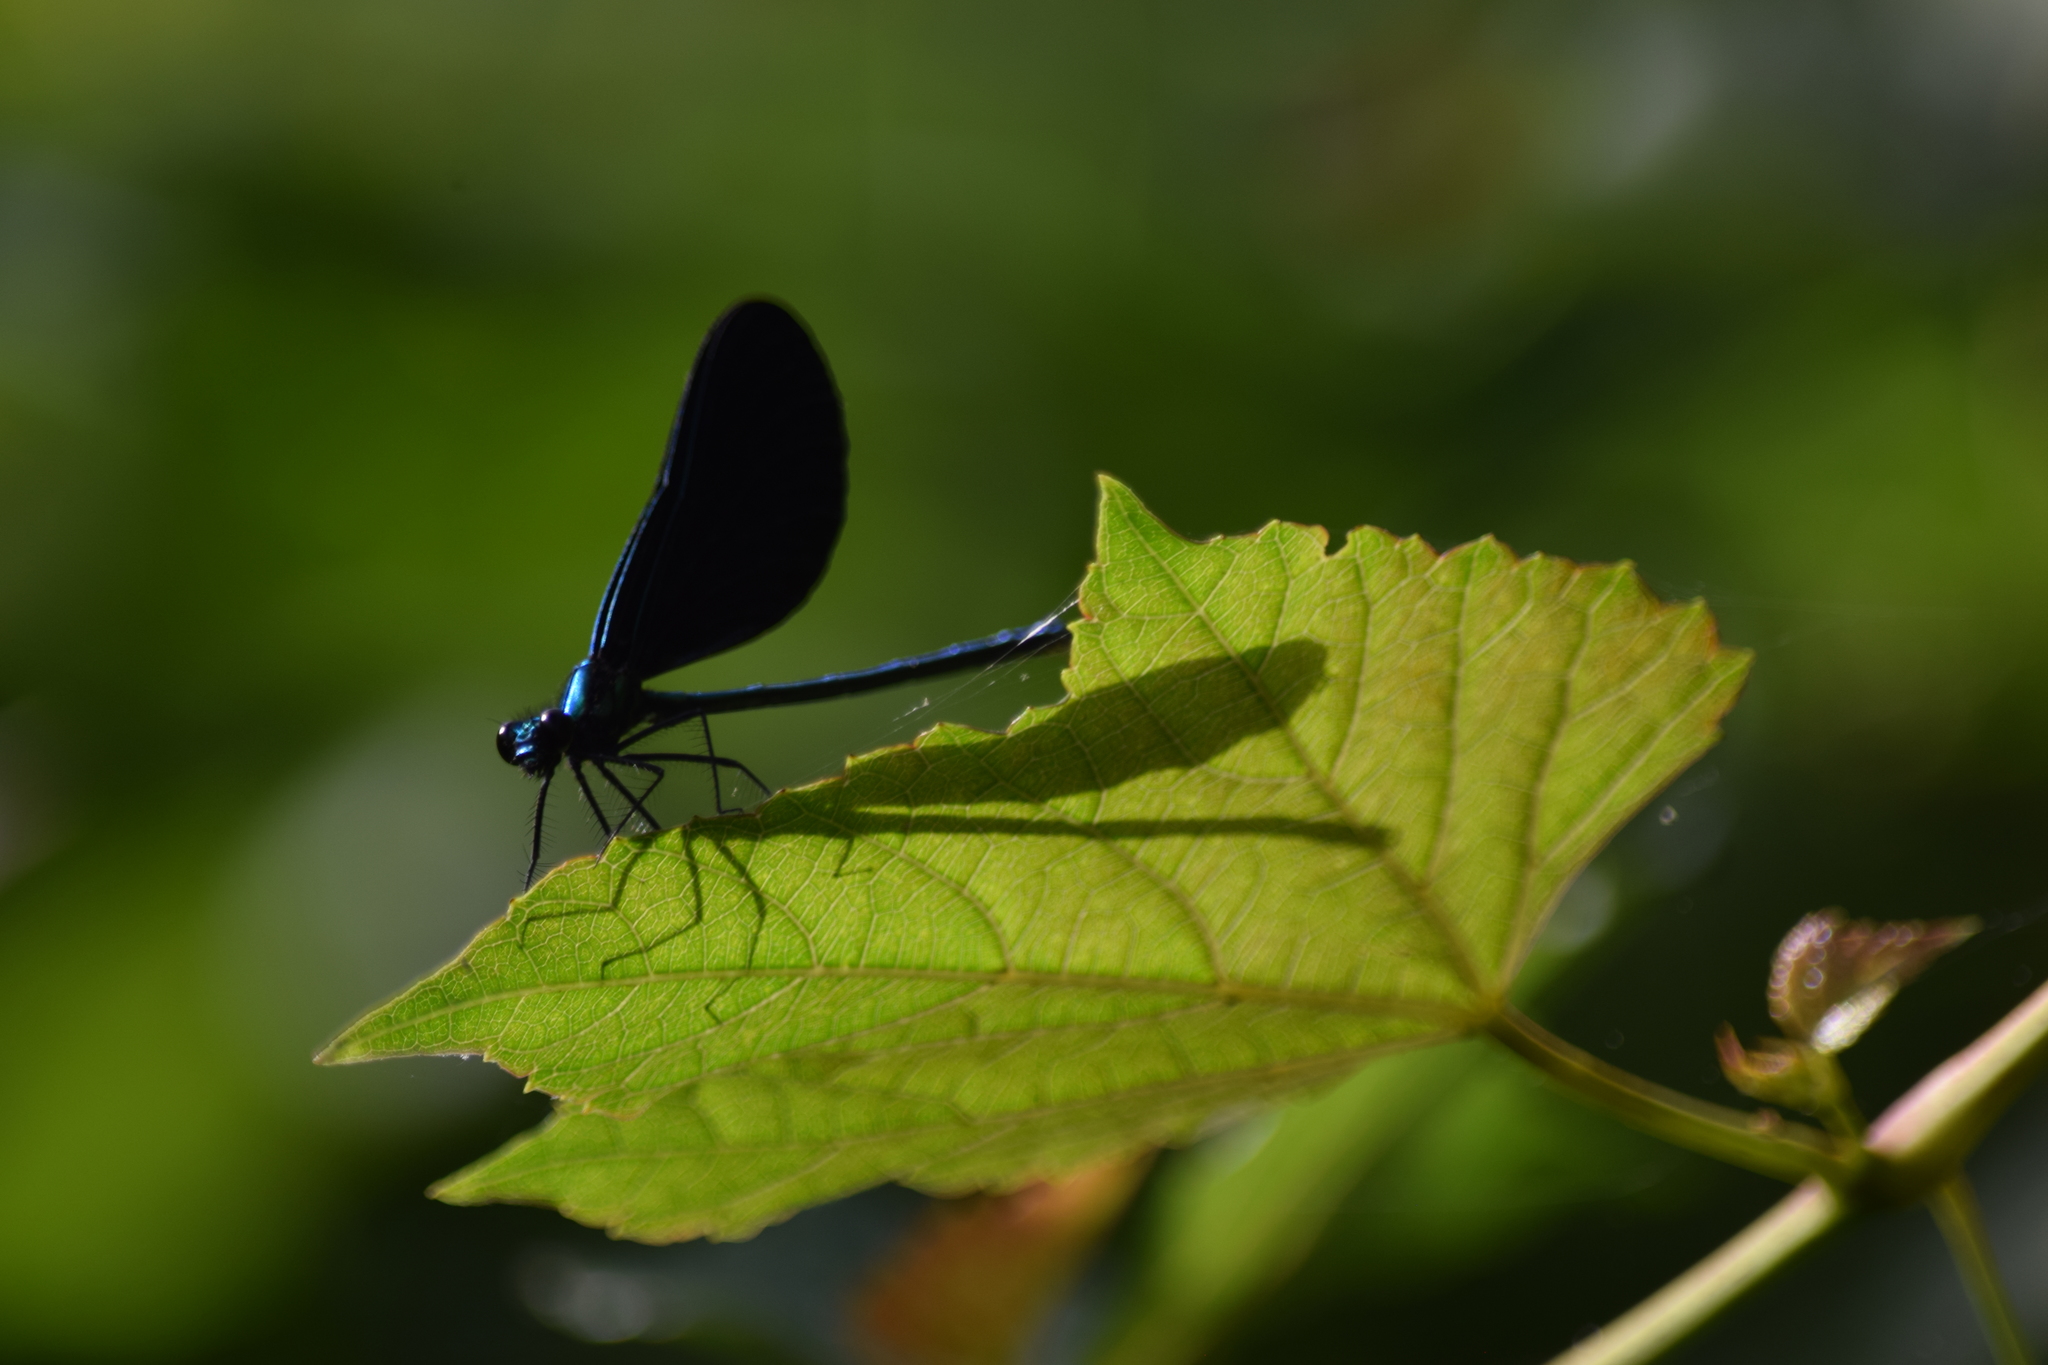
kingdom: Animalia
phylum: Arthropoda
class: Insecta
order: Odonata
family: Calopterygidae
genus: Calopteryx
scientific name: Calopteryx maculata
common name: Ebony jewelwing
